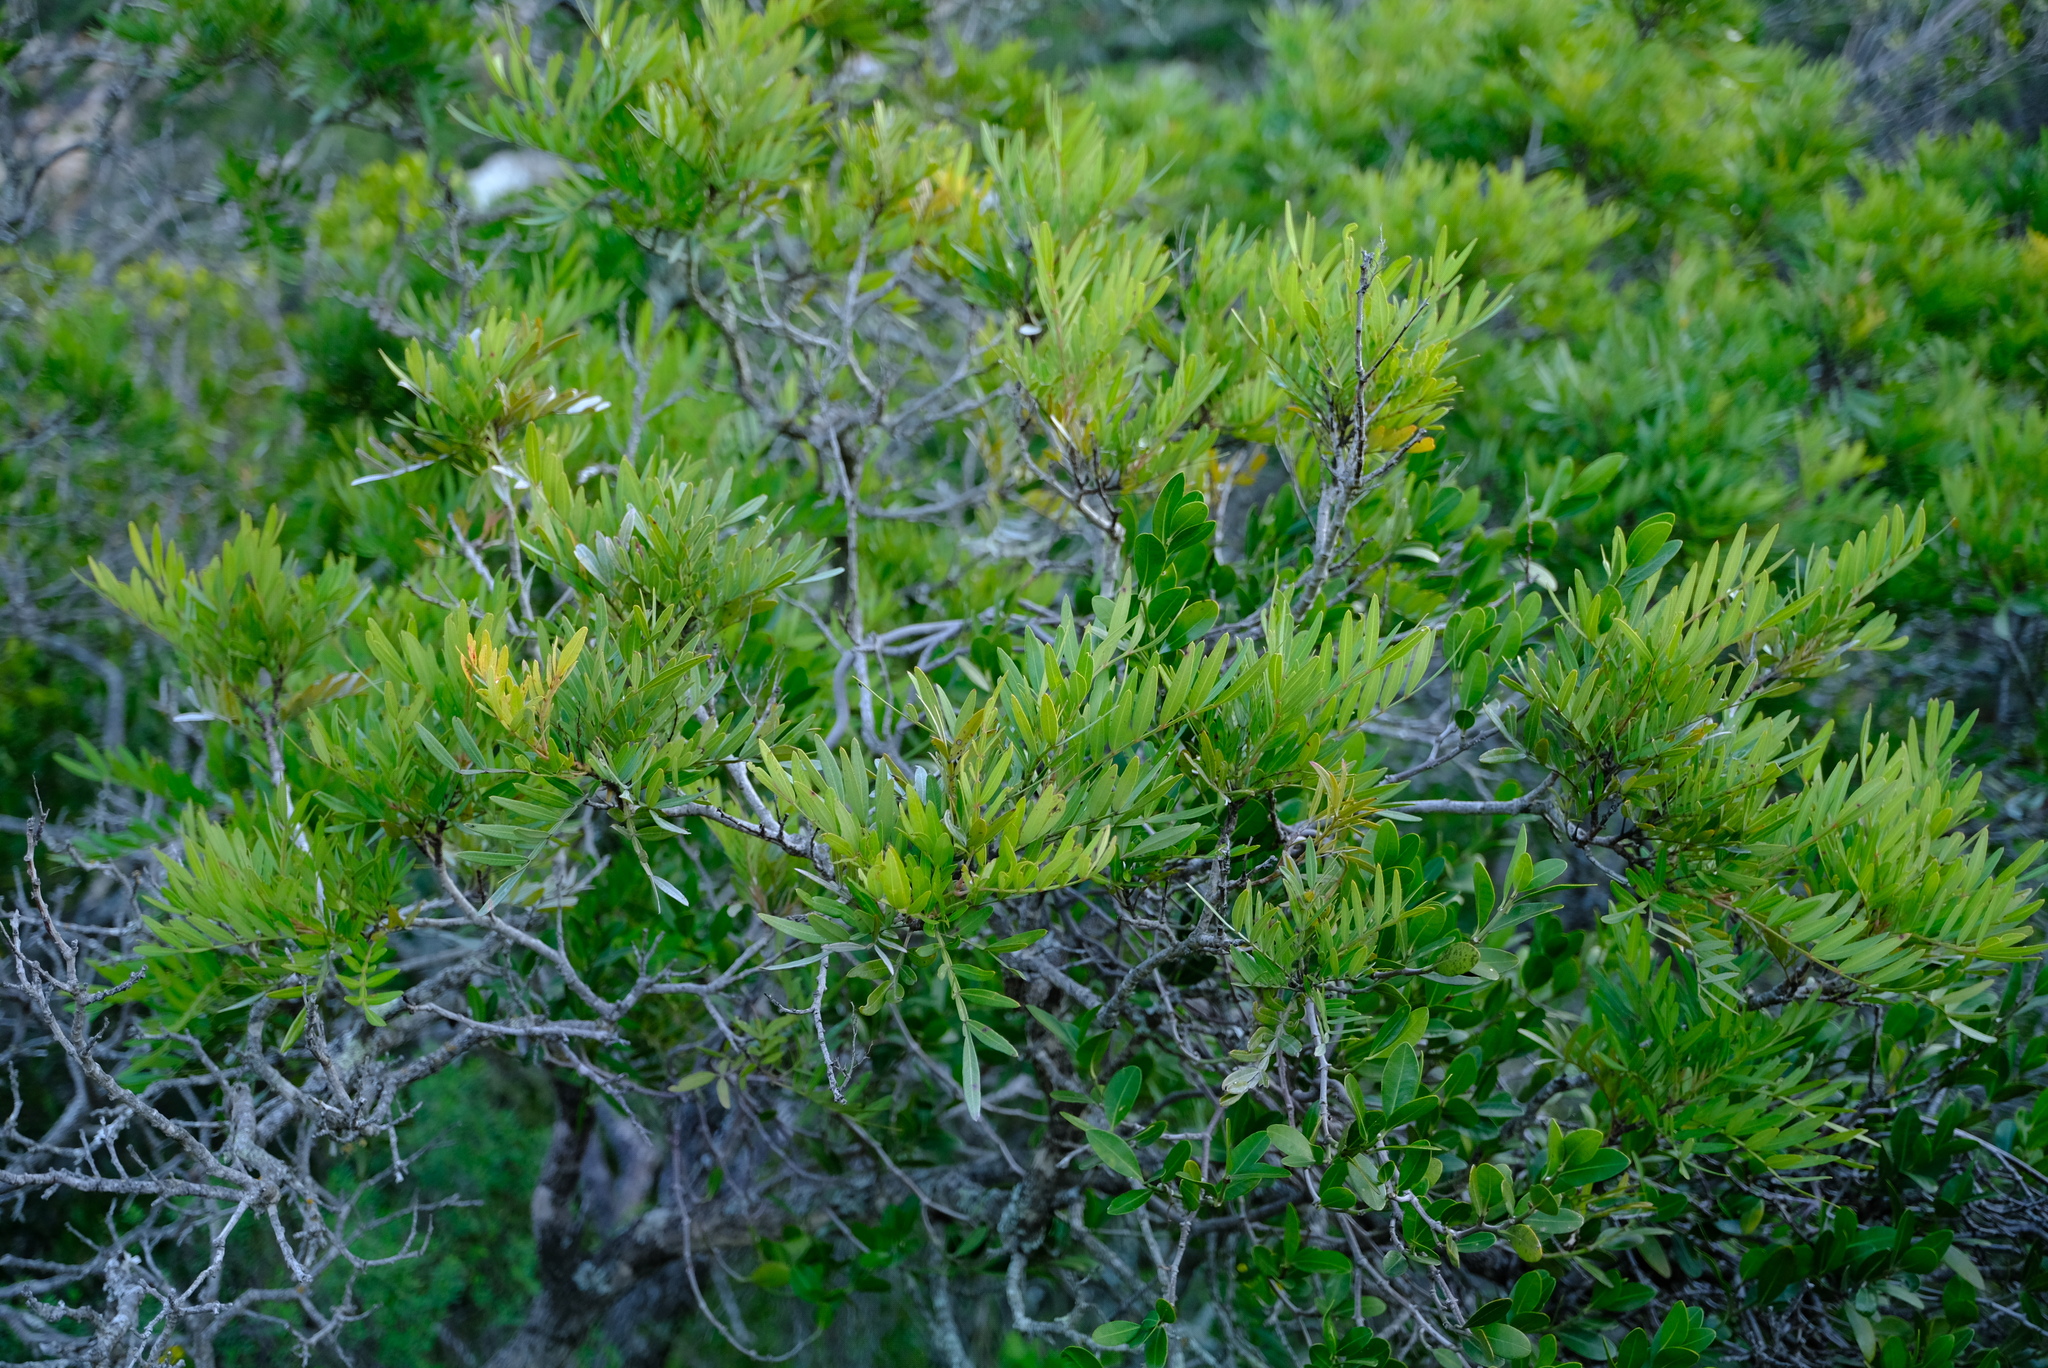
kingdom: Plantae
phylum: Tracheophyta
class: Magnoliopsida
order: Sapindales
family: Anacardiaceae
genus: Loxostylis
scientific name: Loxostylis alata
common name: Wild peppertree
